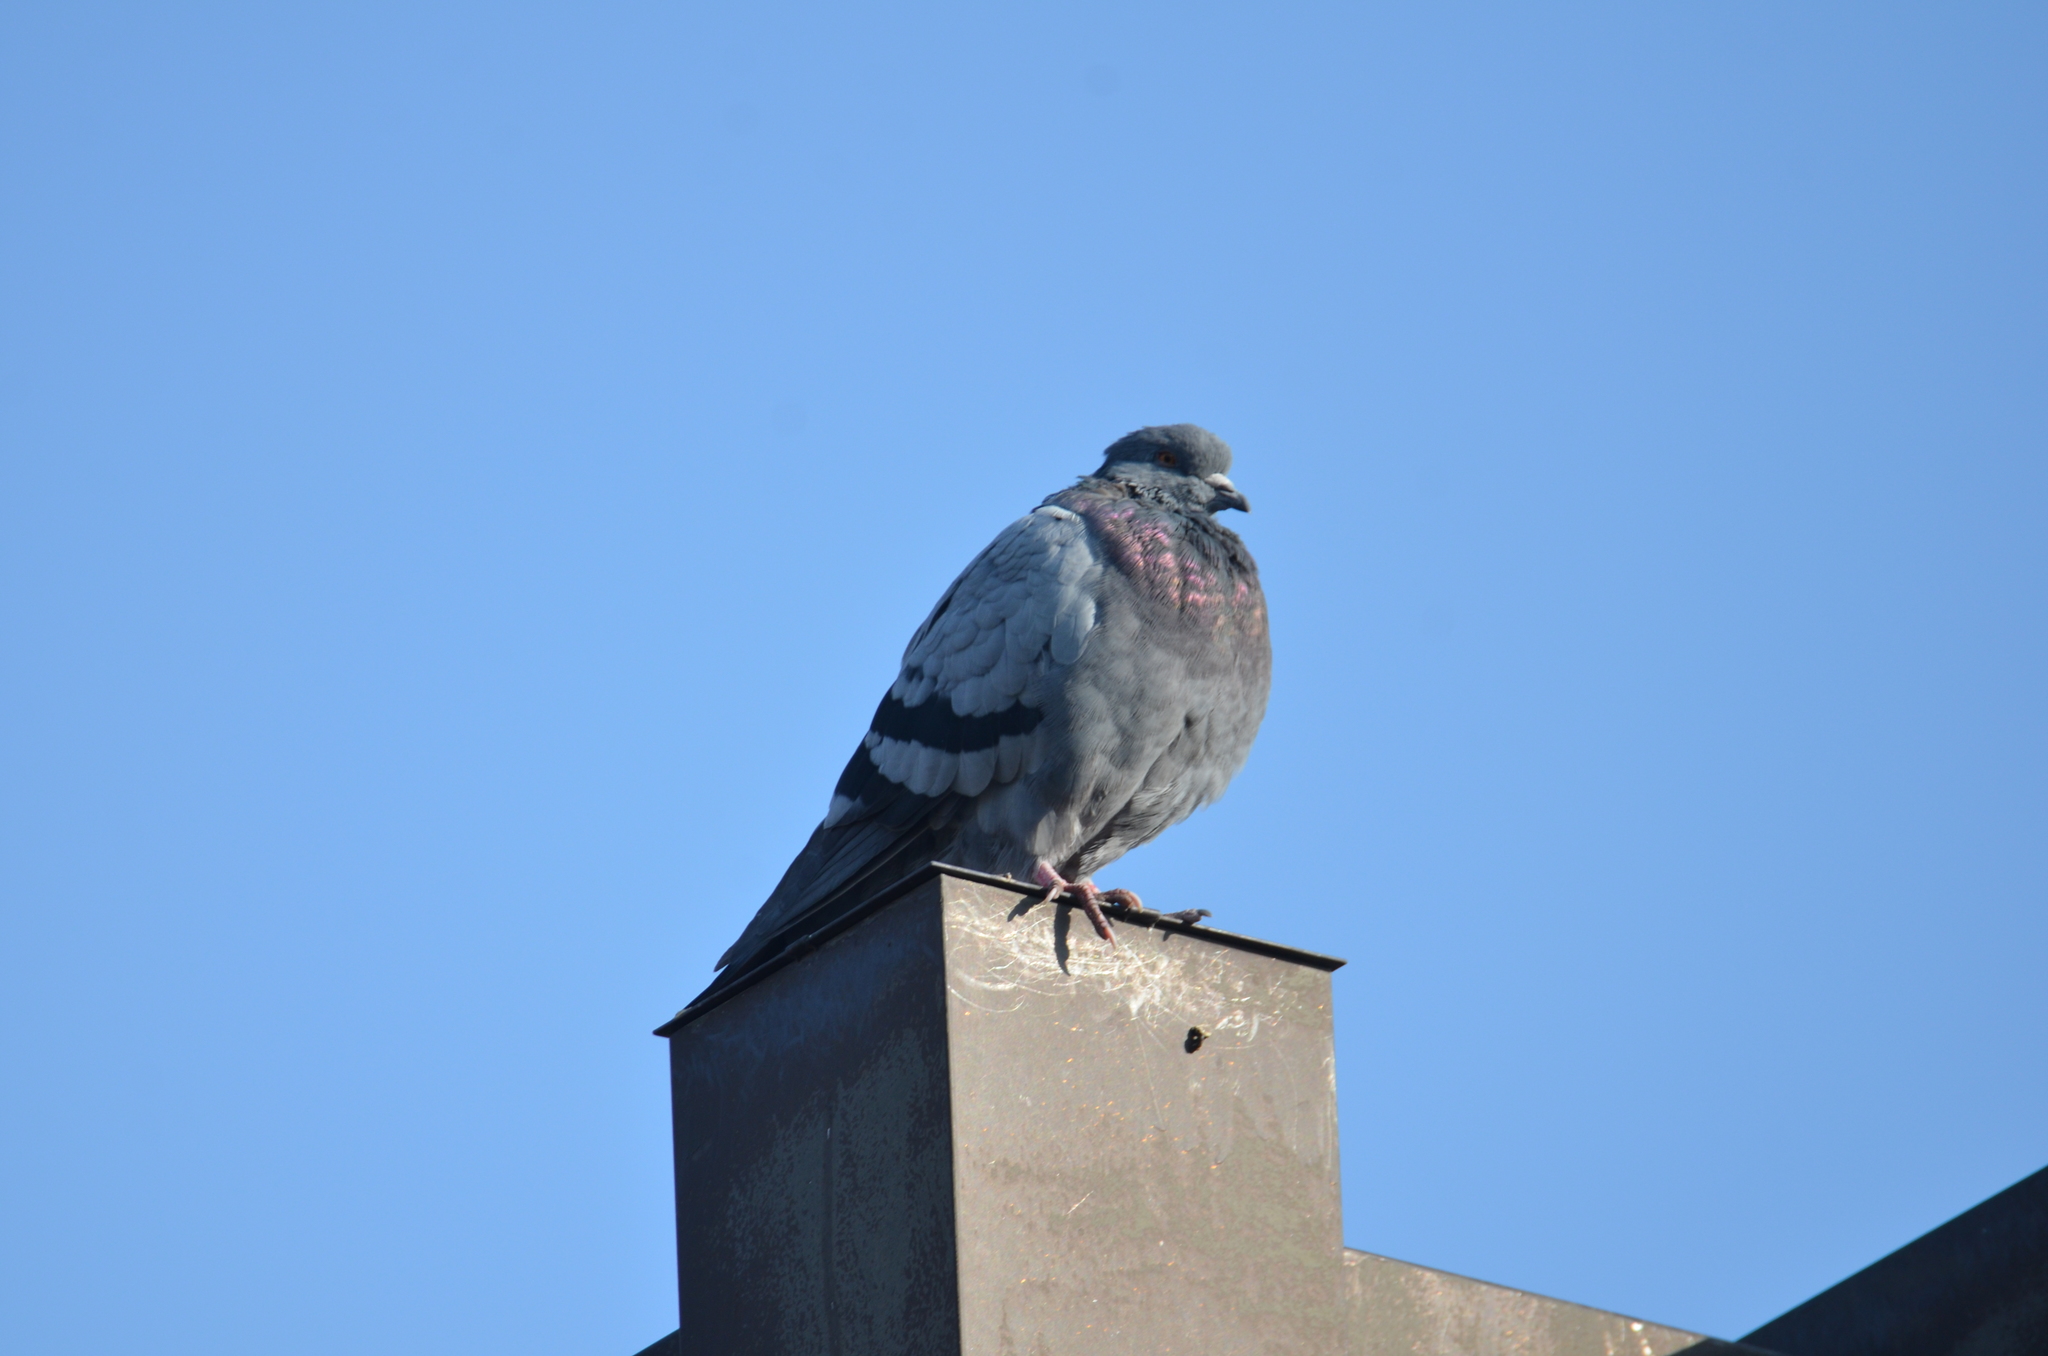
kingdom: Animalia
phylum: Chordata
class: Aves
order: Columbiformes
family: Columbidae
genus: Columba
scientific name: Columba livia
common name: Rock pigeon
